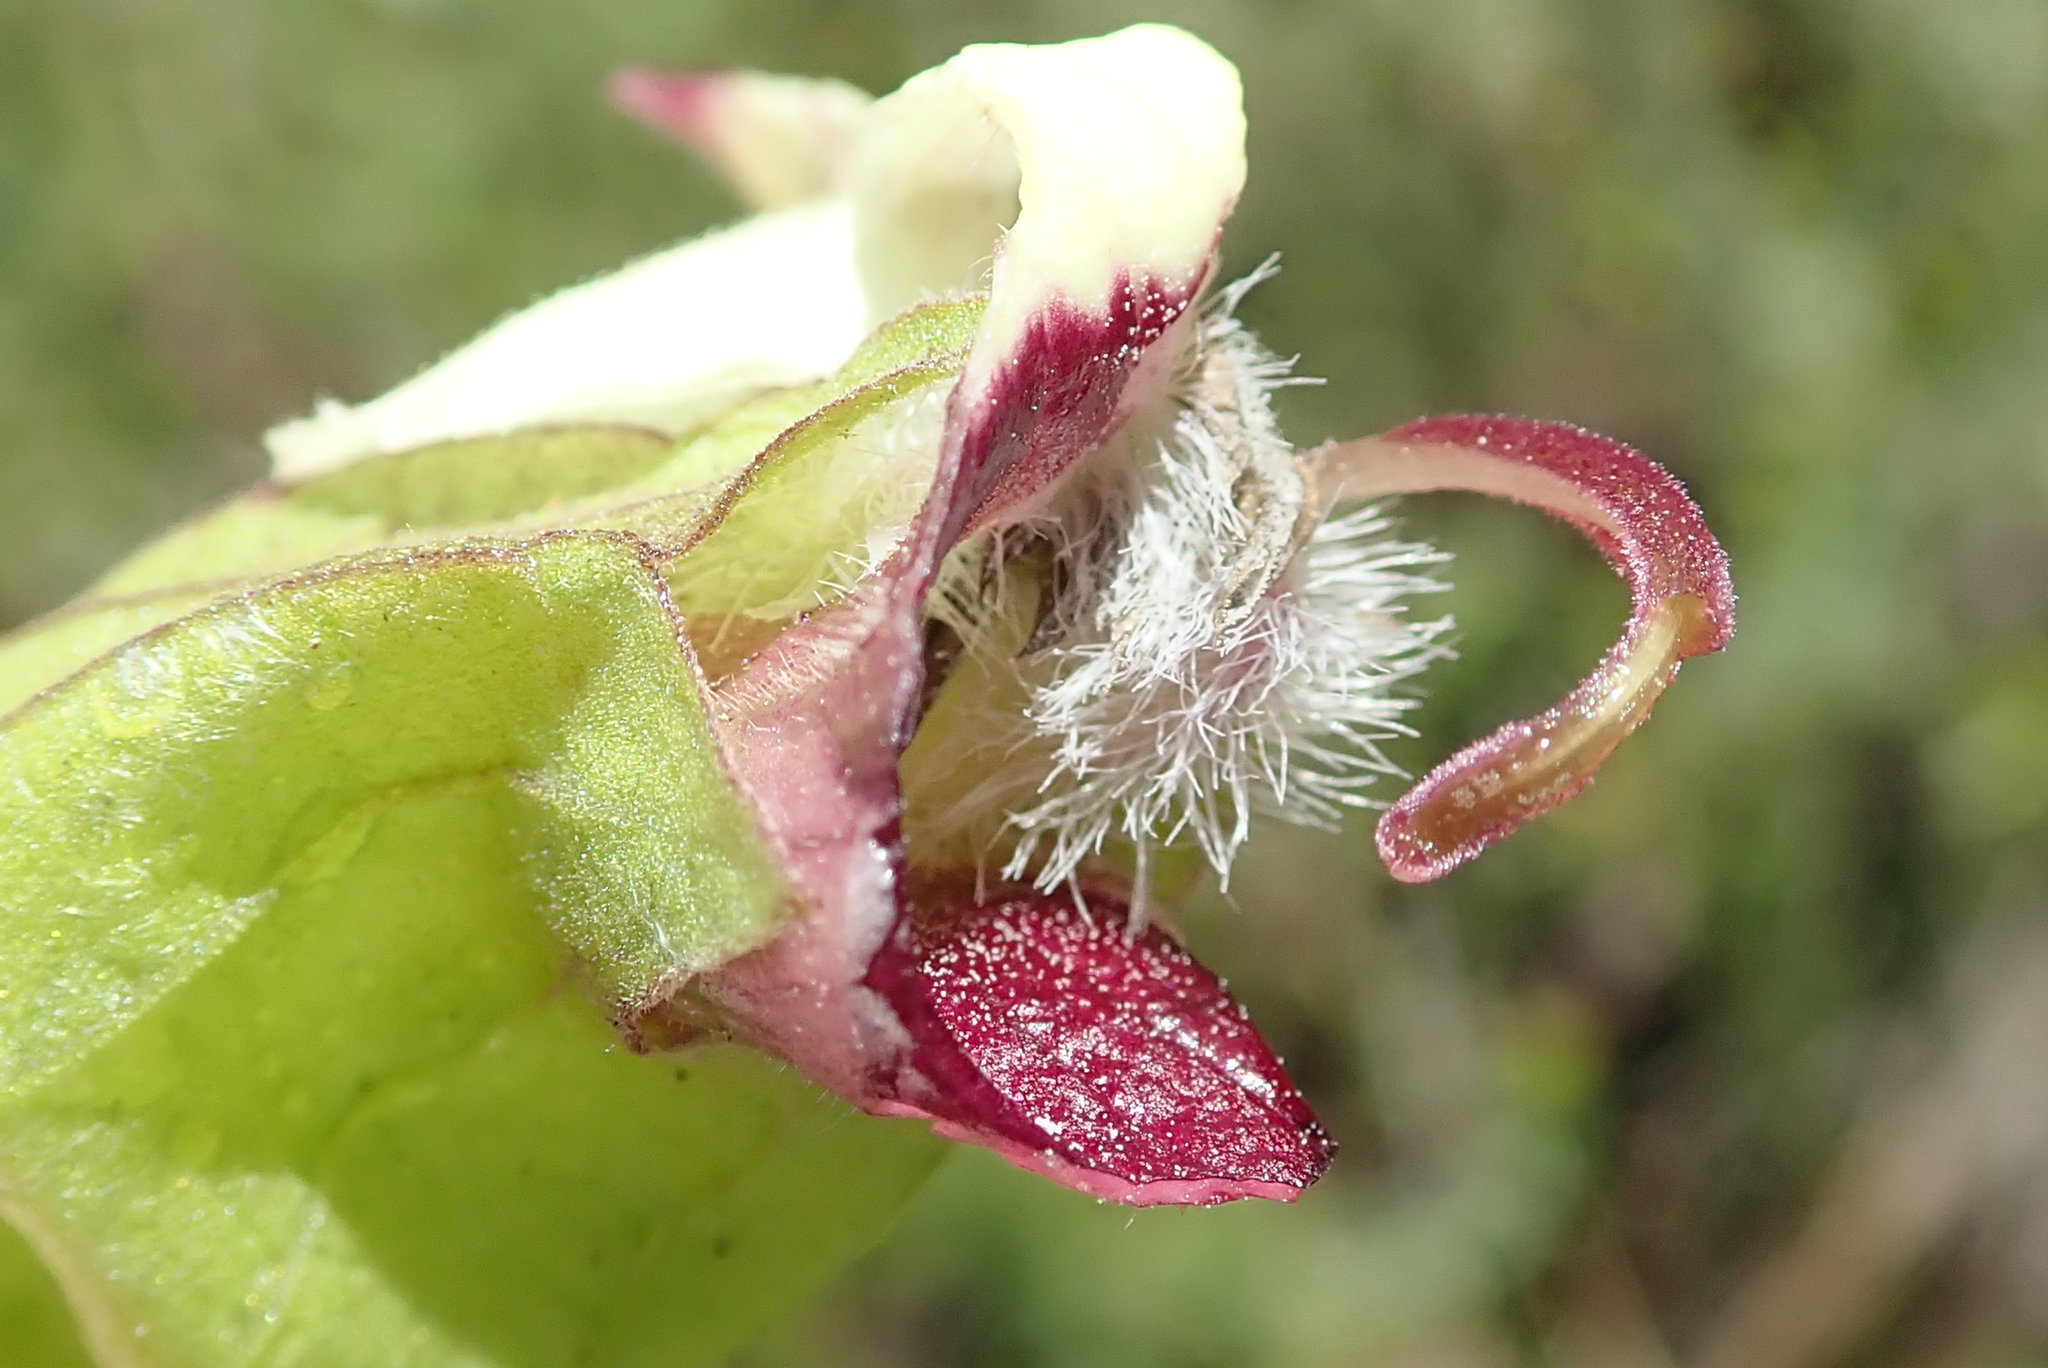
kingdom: Plantae
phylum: Tracheophyta
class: Magnoliopsida
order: Lamiales
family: Orobanchaceae
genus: Melasma
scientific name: Melasma scabrum
